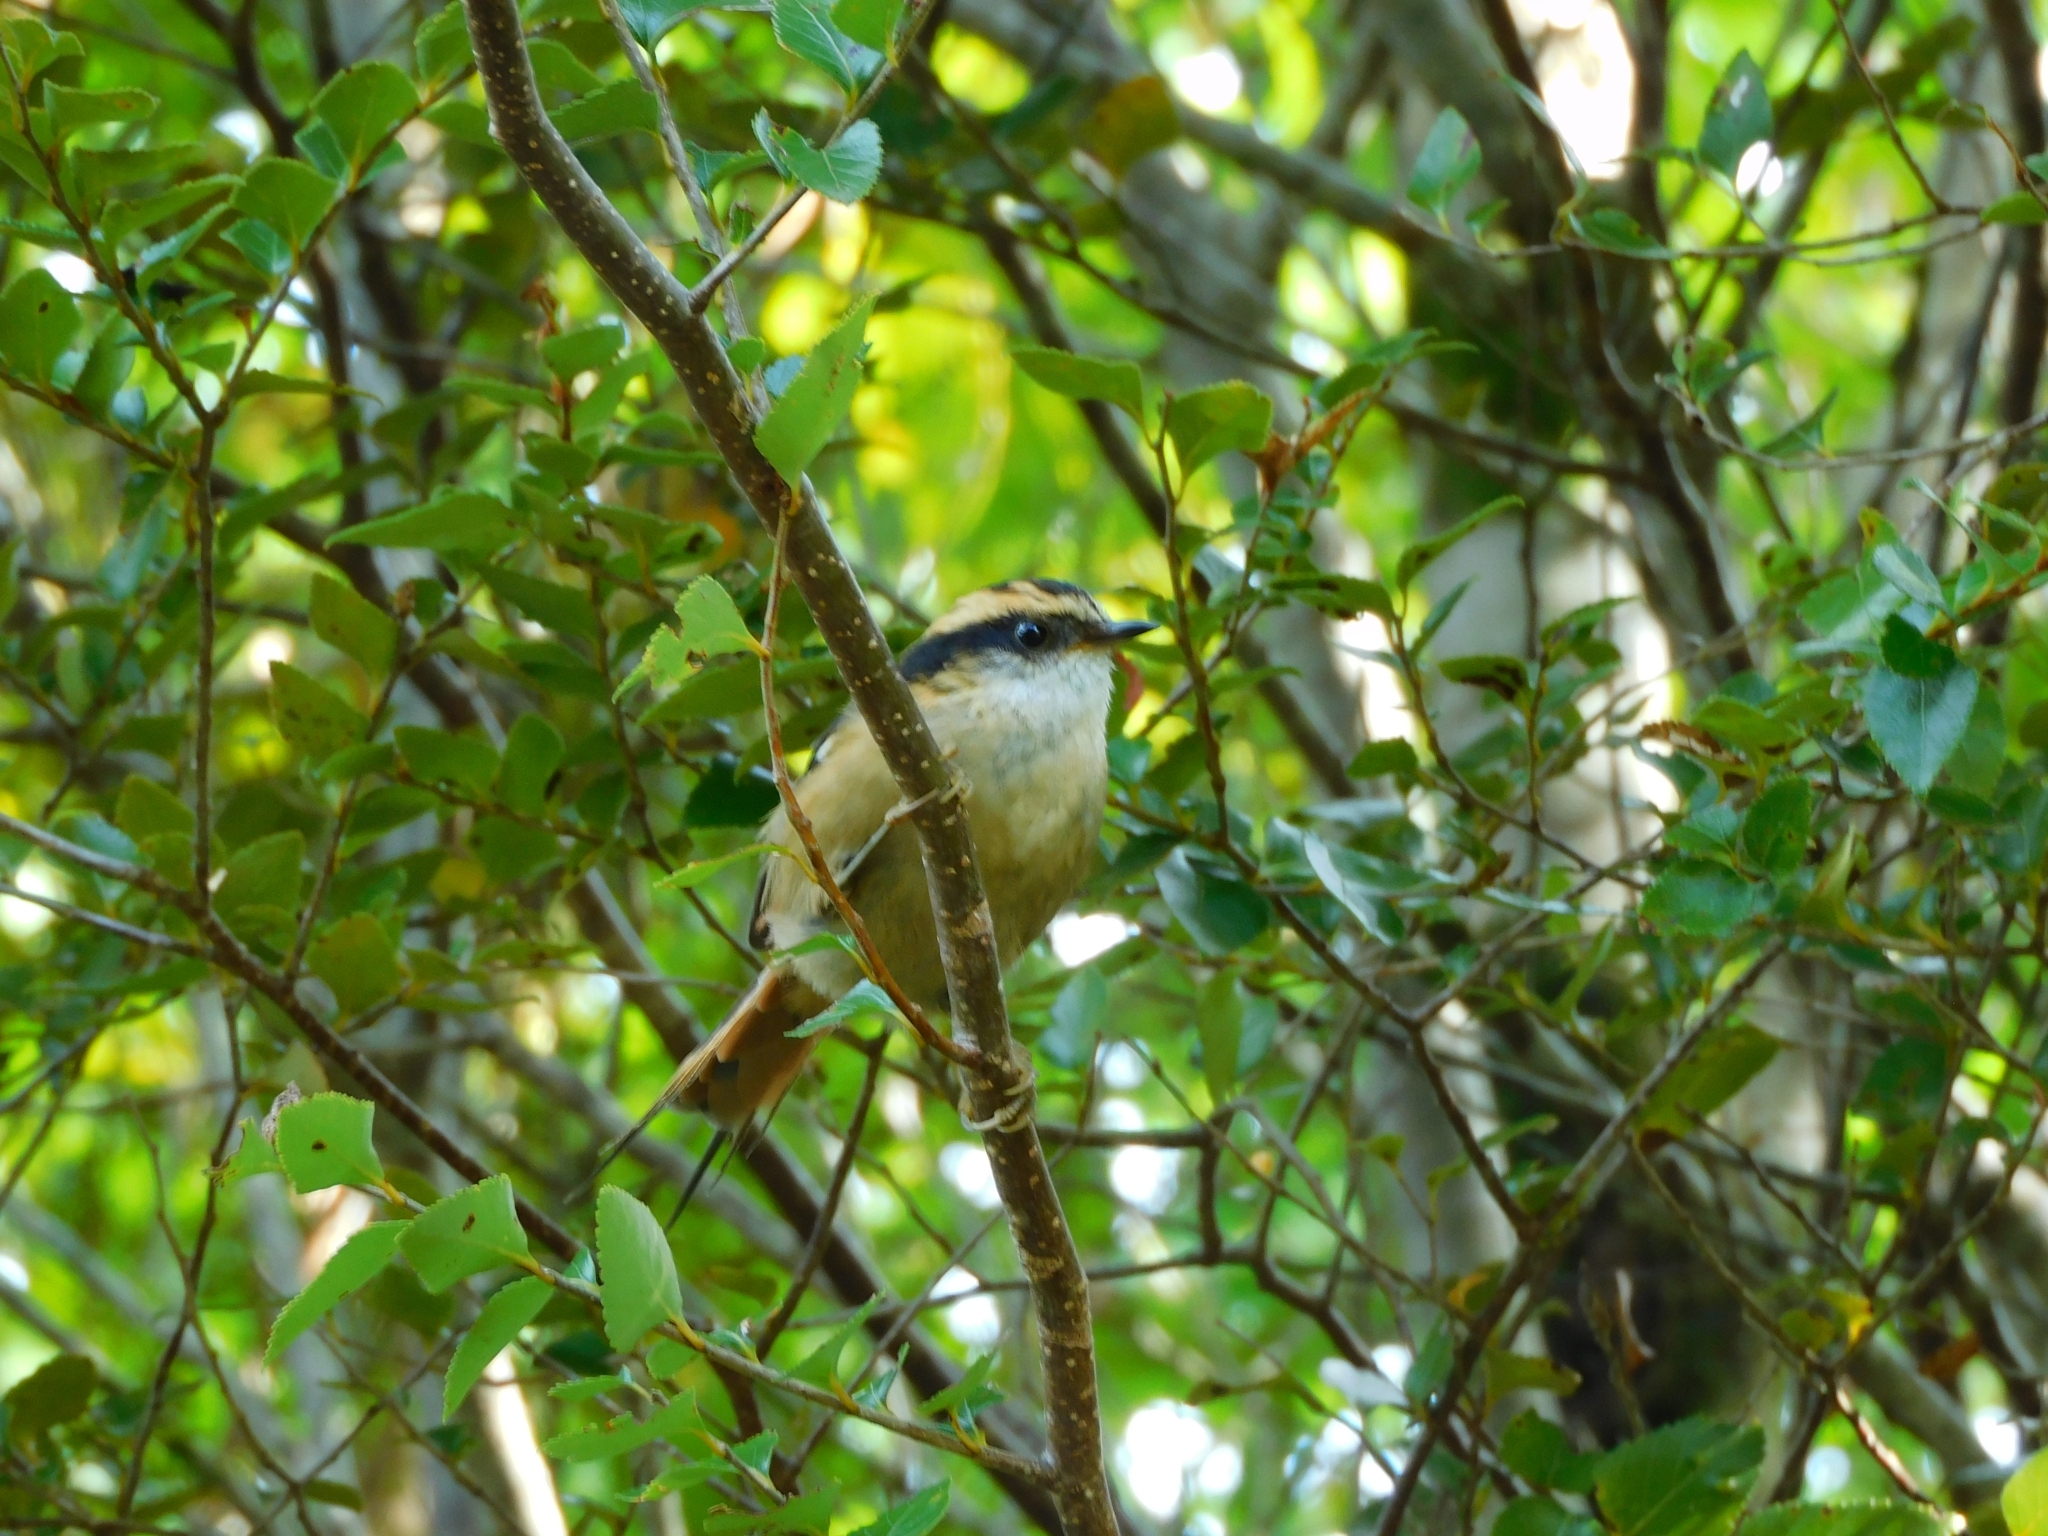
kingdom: Animalia
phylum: Chordata
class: Aves
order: Passeriformes
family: Furnariidae
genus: Aphrastura
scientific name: Aphrastura spinicauda
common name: Thorn-tailed rayadito
